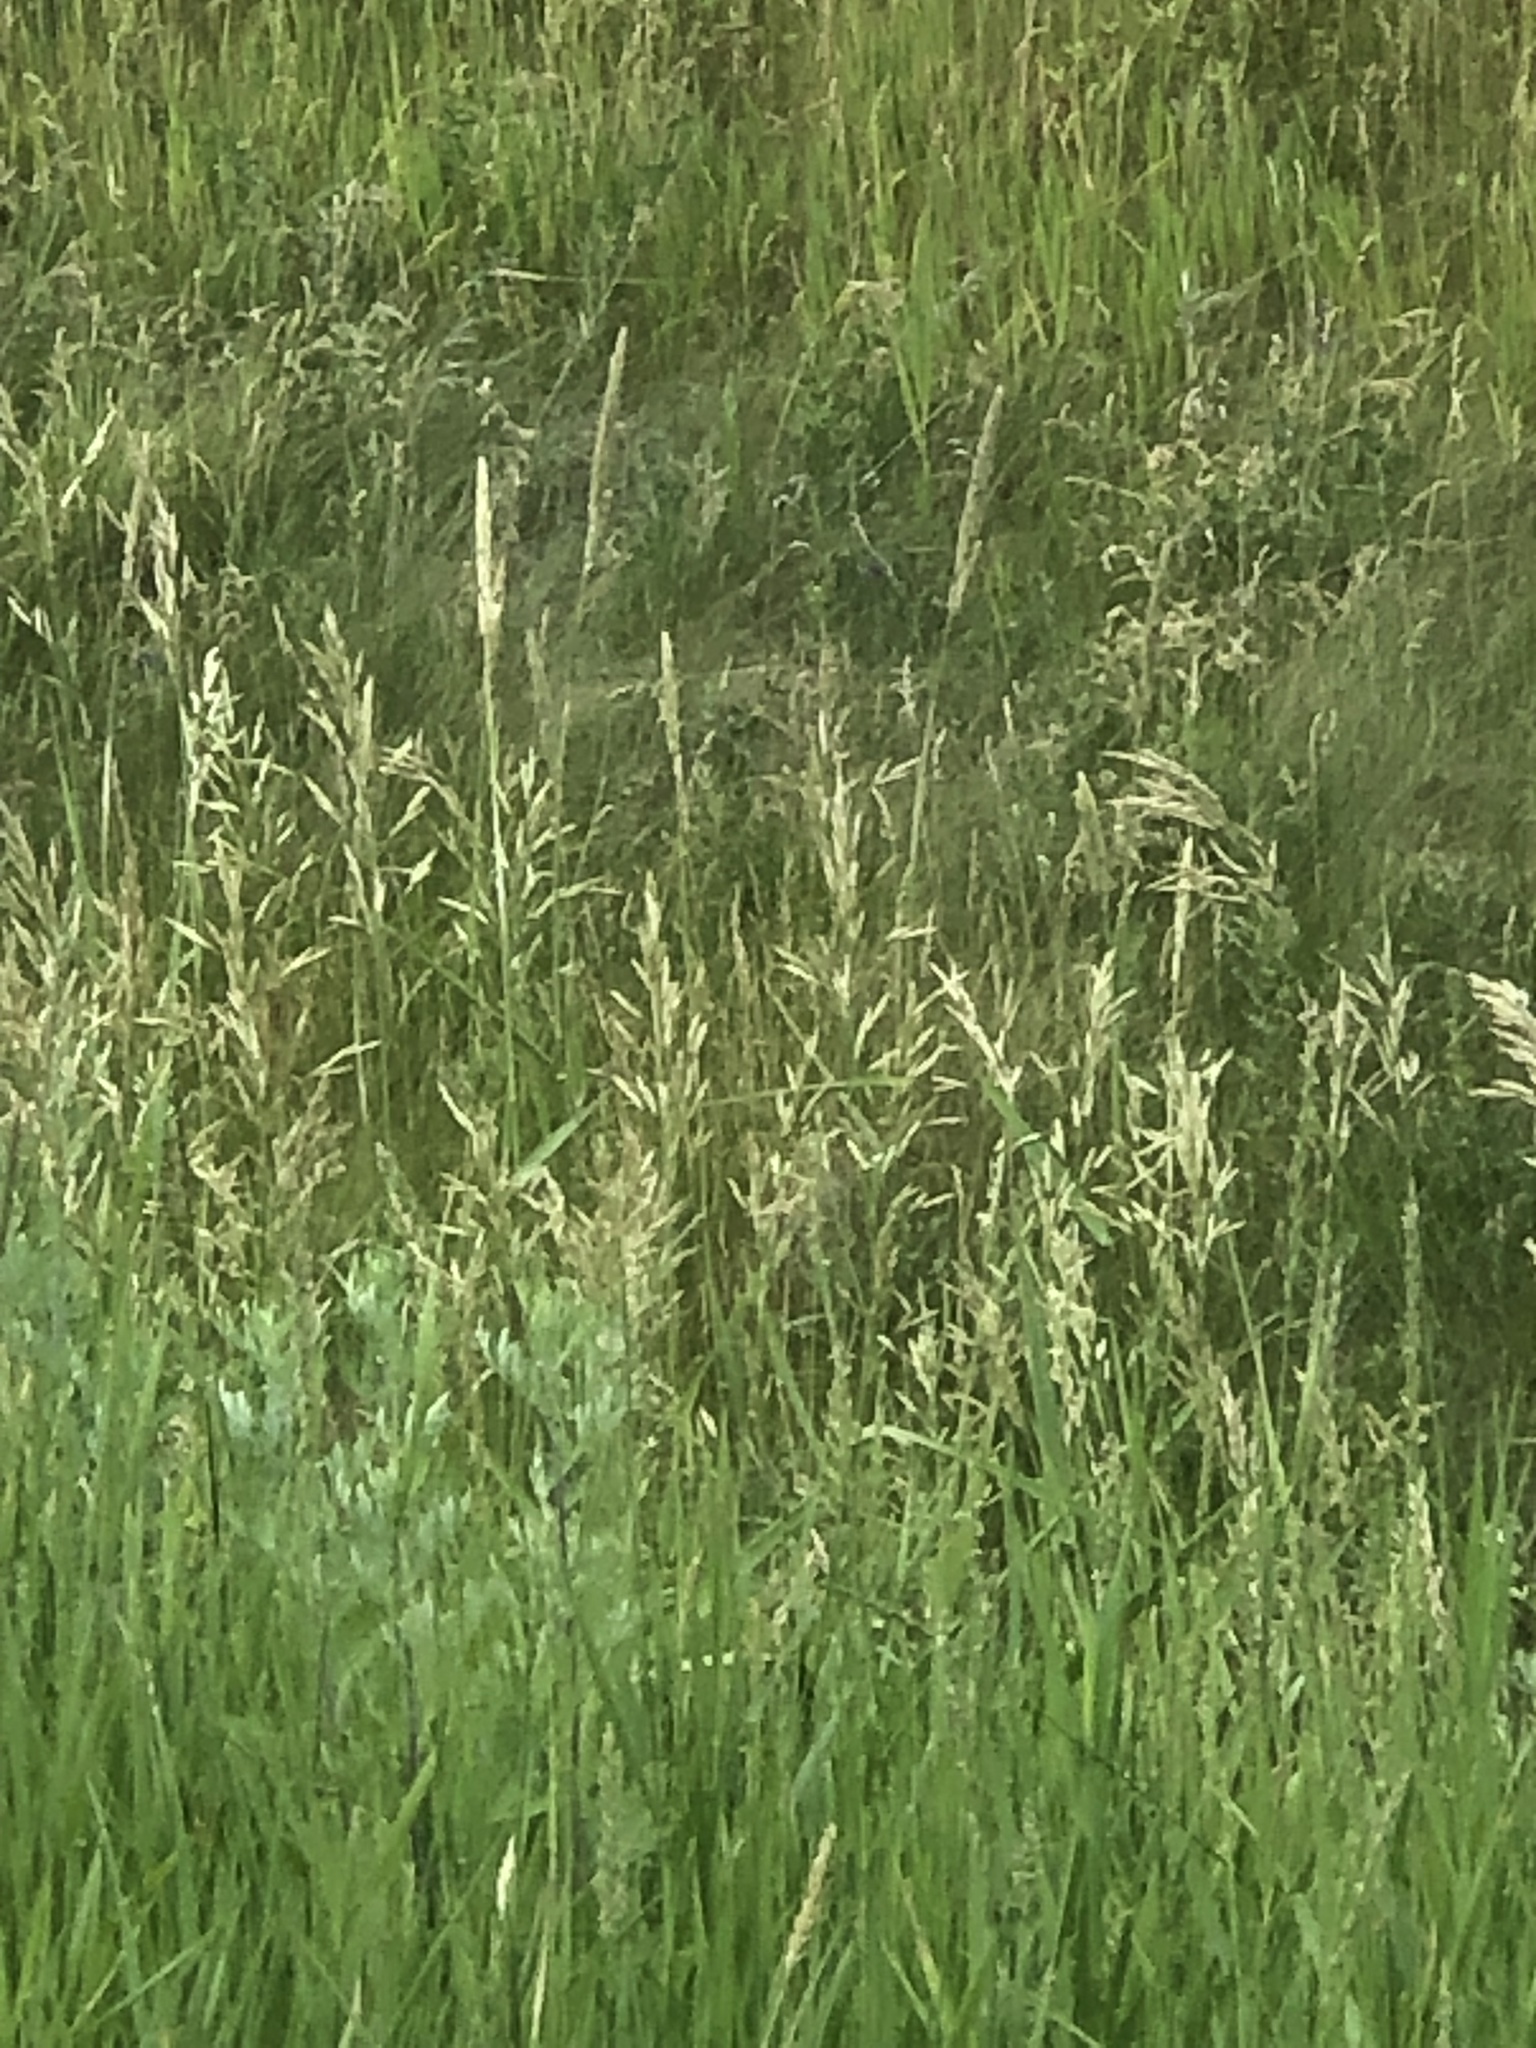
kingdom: Plantae
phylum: Tracheophyta
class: Liliopsida
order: Poales
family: Poaceae
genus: Bromus
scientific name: Bromus inermis
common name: Smooth brome
